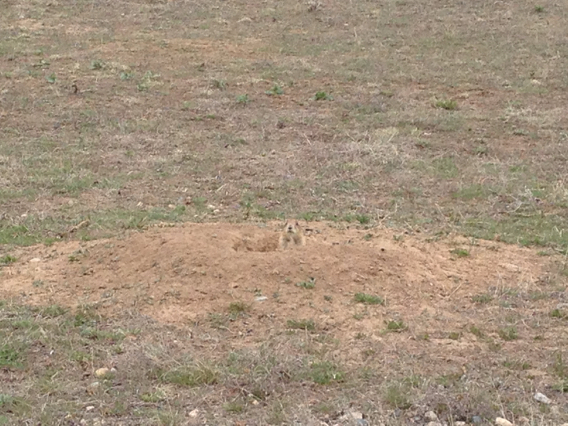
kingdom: Animalia
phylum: Chordata
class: Mammalia
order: Rodentia
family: Sciuridae
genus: Cynomys
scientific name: Cynomys ludovicianus
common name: Black-tailed prairie dog
